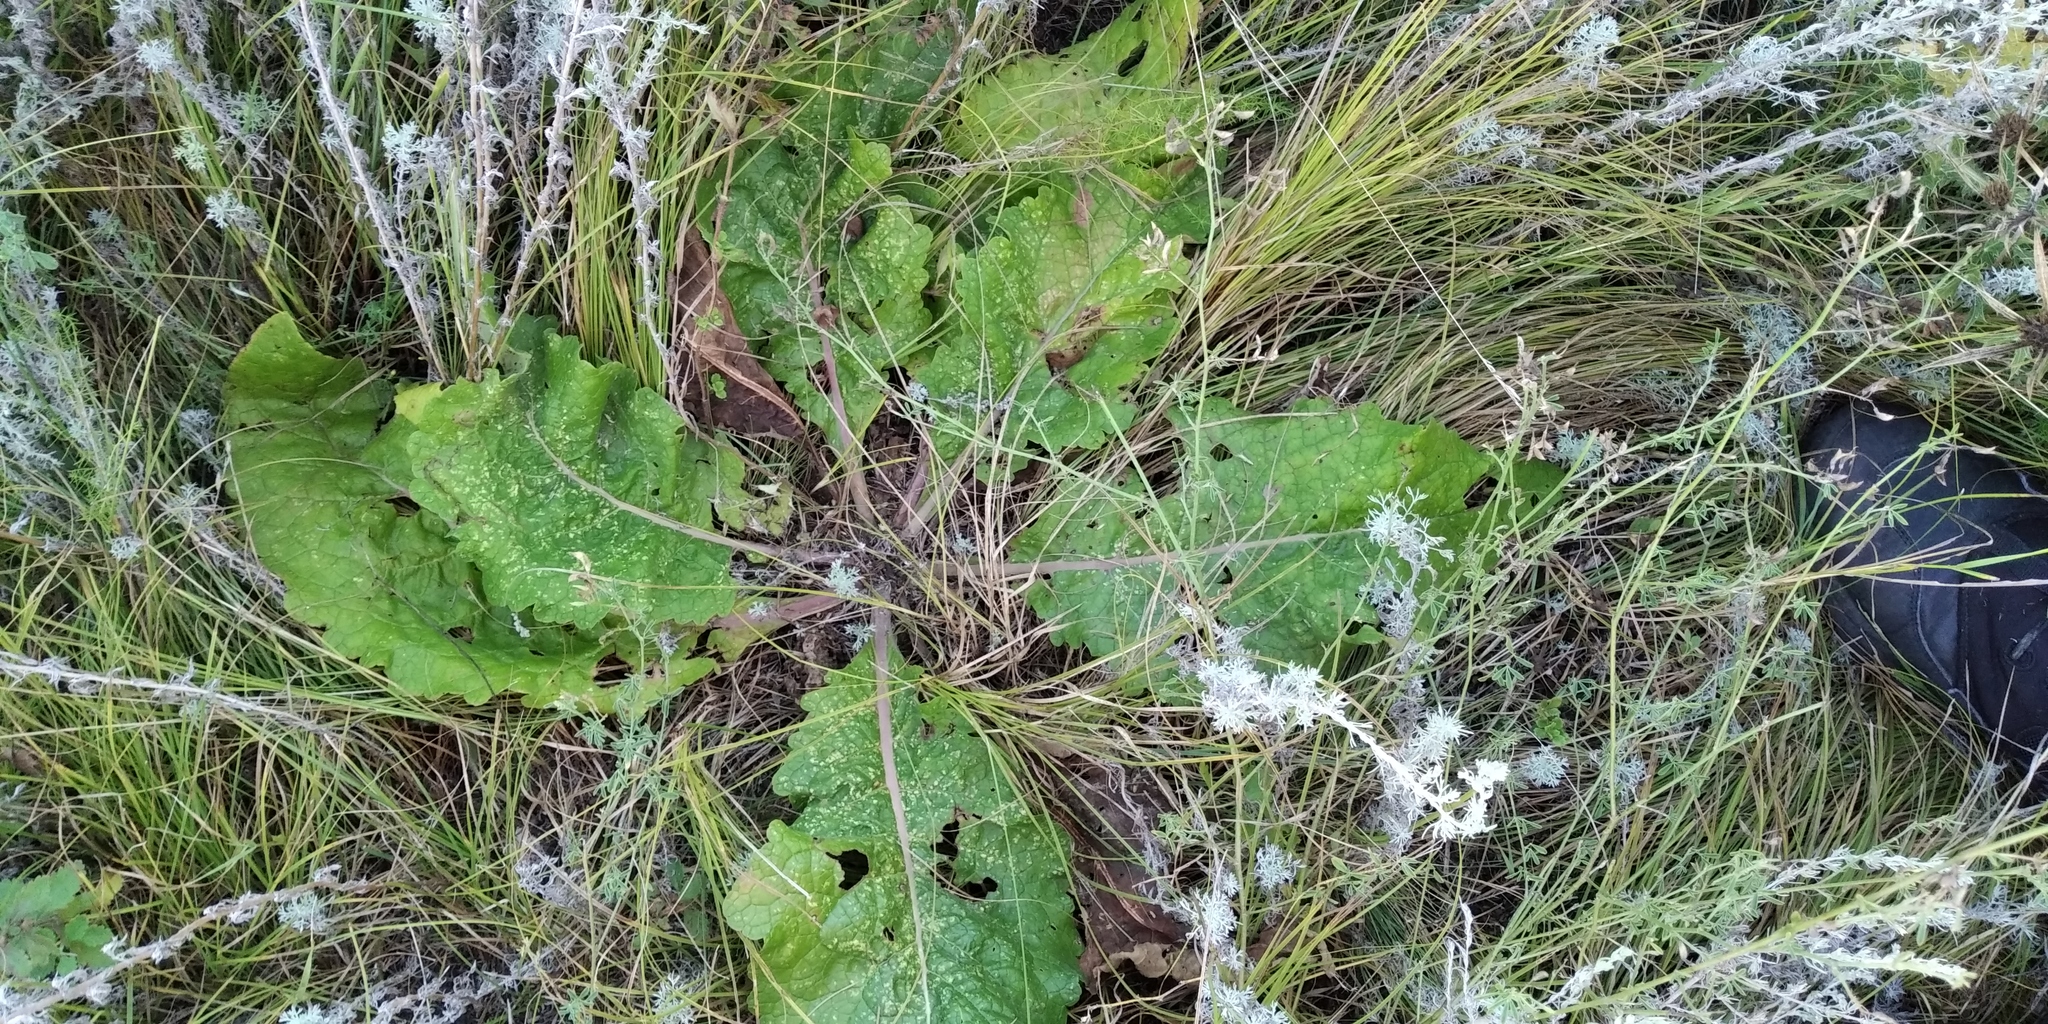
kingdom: Plantae
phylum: Tracheophyta
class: Magnoliopsida
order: Lamiales
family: Scrophulariaceae
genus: Verbascum
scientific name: Verbascum lychnitis
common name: White mullein
